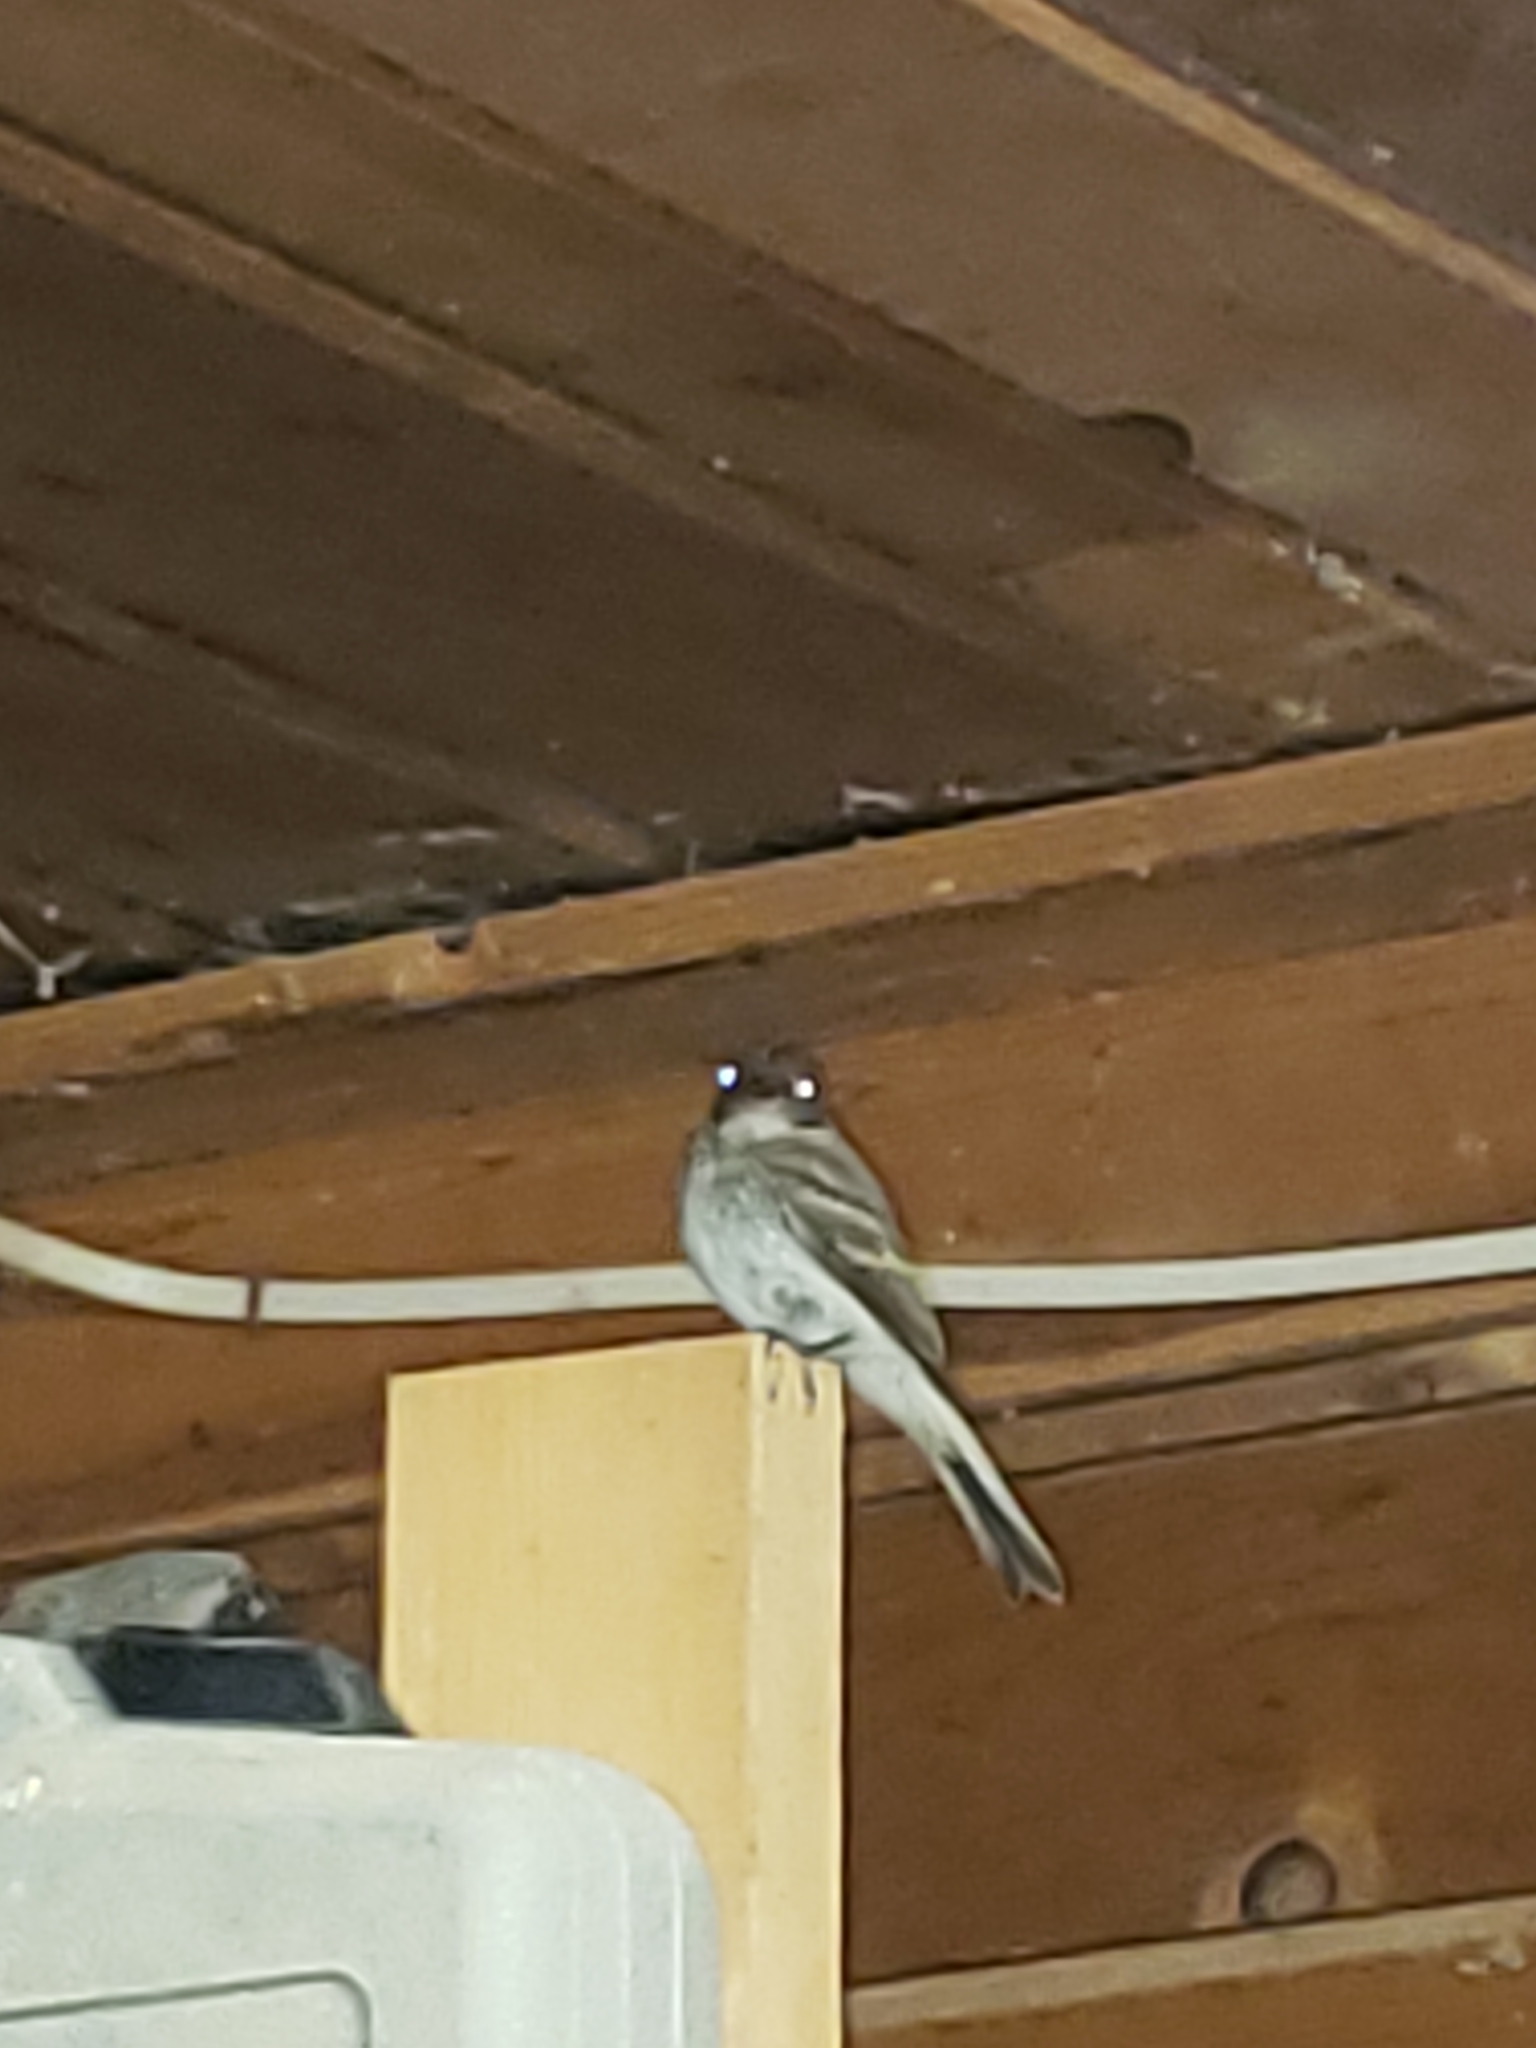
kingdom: Animalia
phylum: Chordata
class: Aves
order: Passeriformes
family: Tyrannidae
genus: Sayornis
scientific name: Sayornis phoebe
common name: Eastern phoebe
